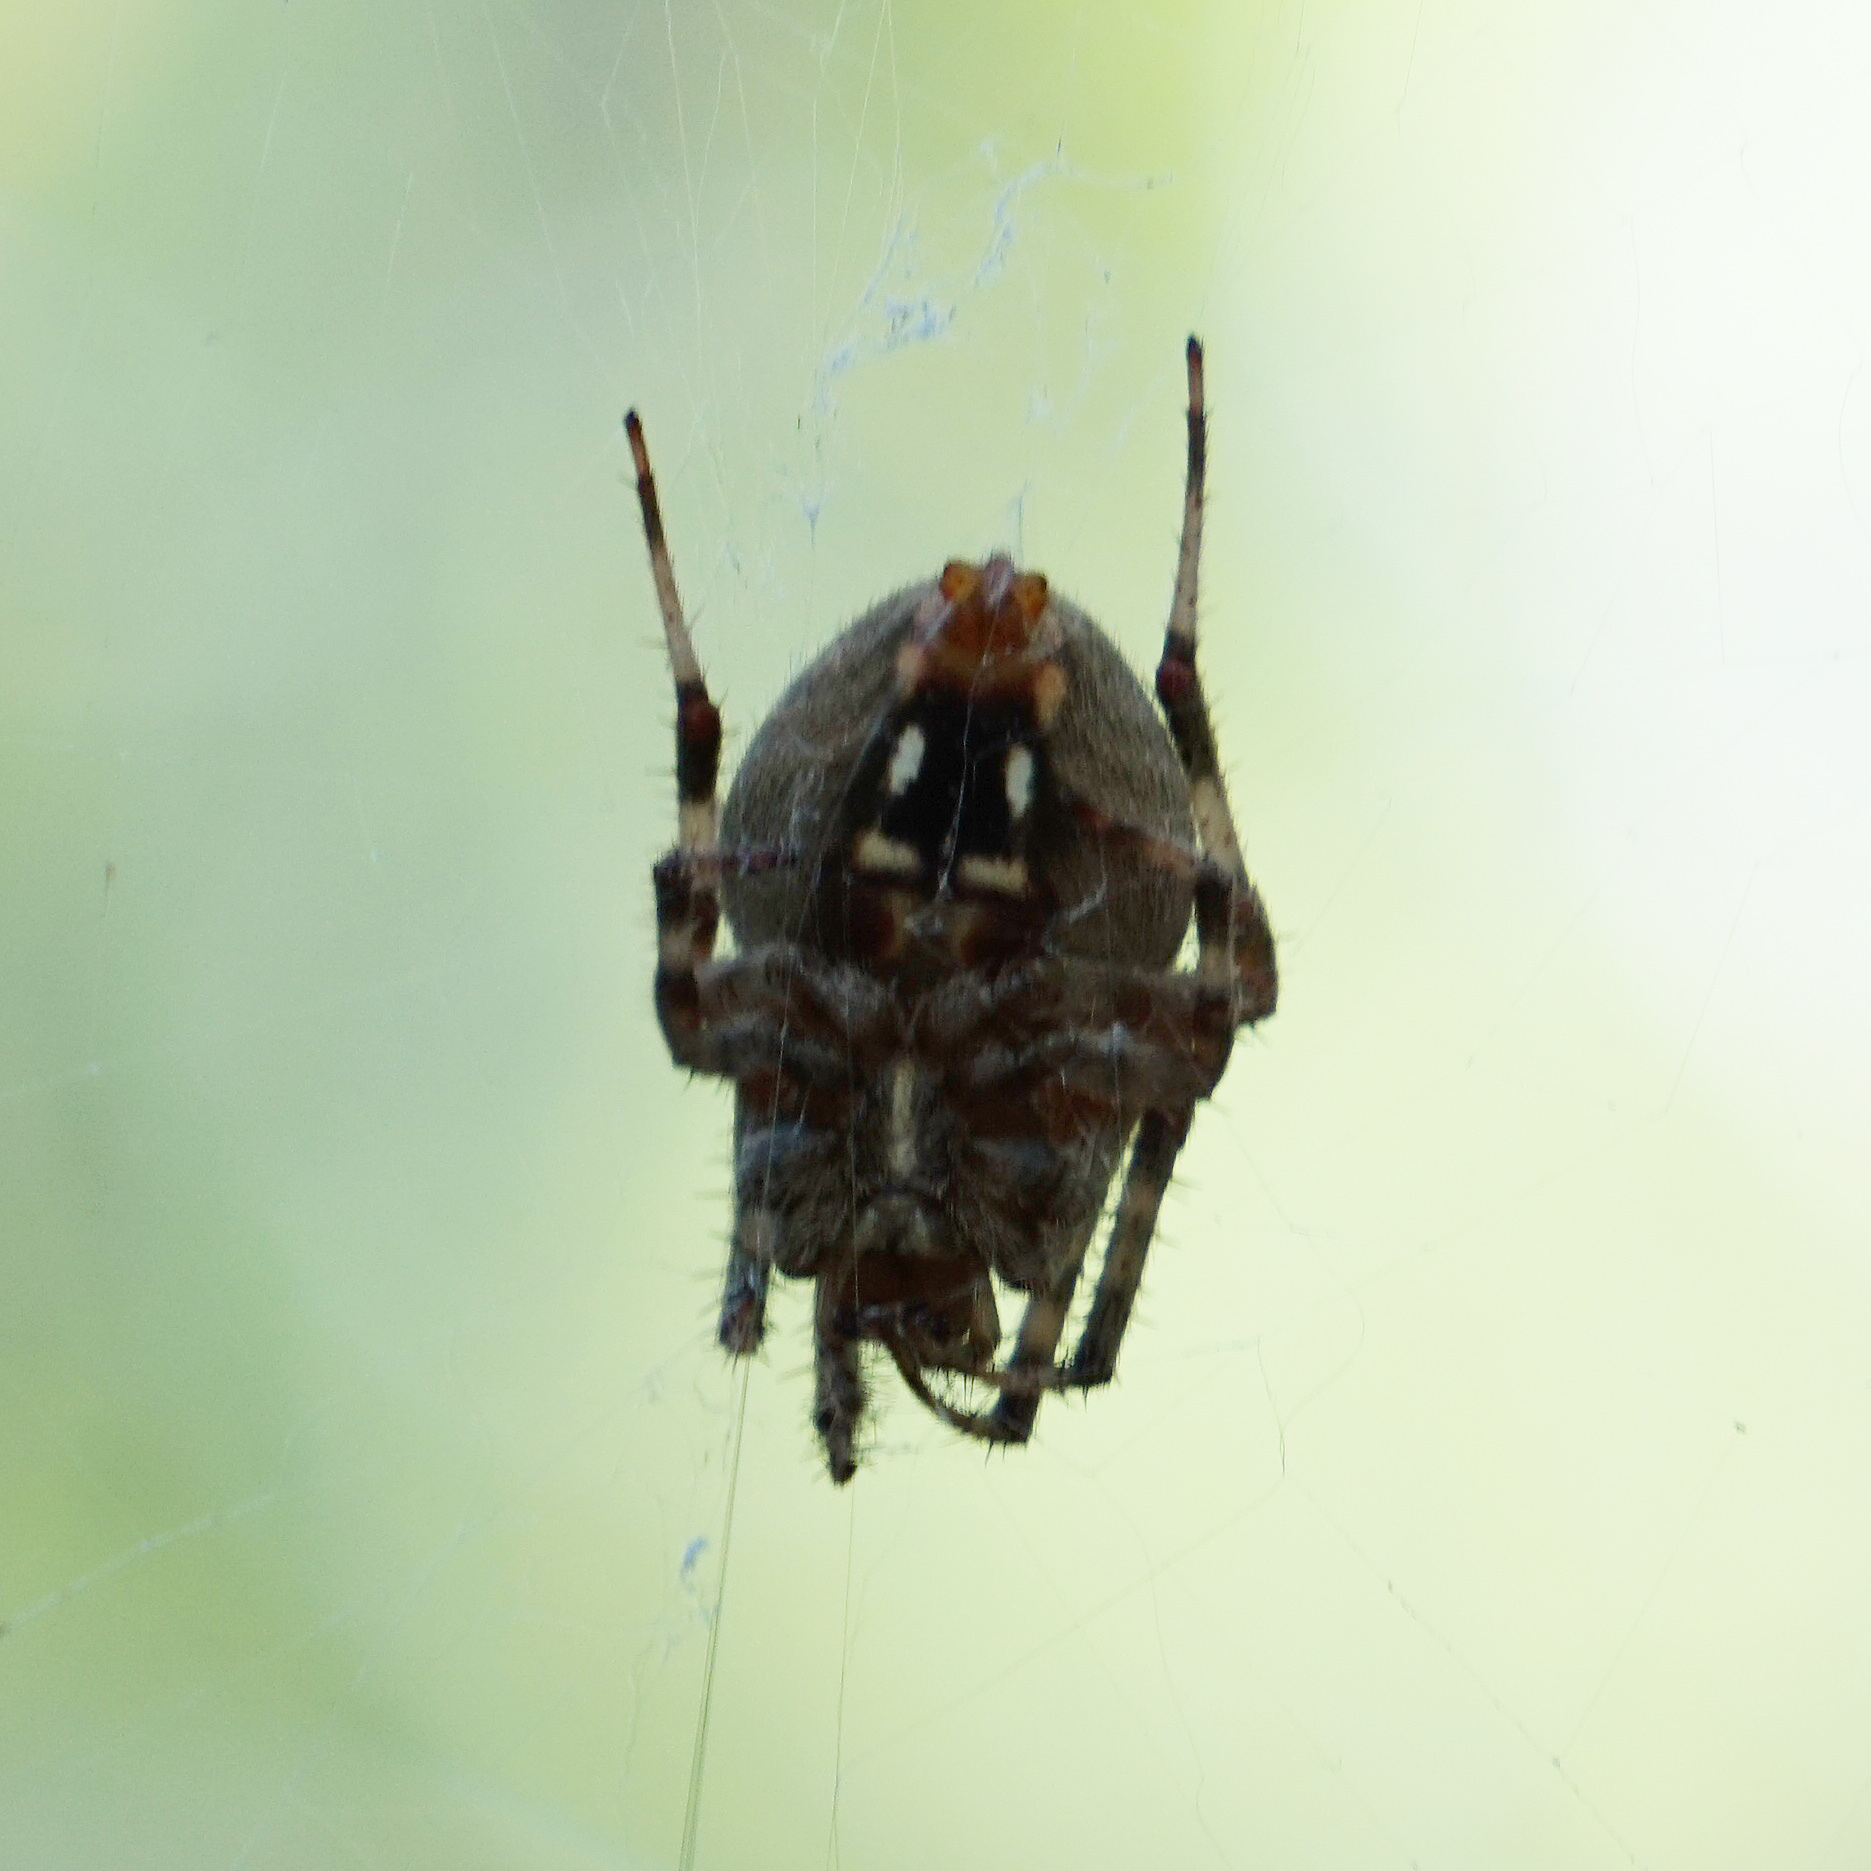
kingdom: Animalia
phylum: Arthropoda
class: Arachnida
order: Araneae
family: Araneidae
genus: Neoscona
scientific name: Neoscona crucifera
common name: Spotted orbweaver
